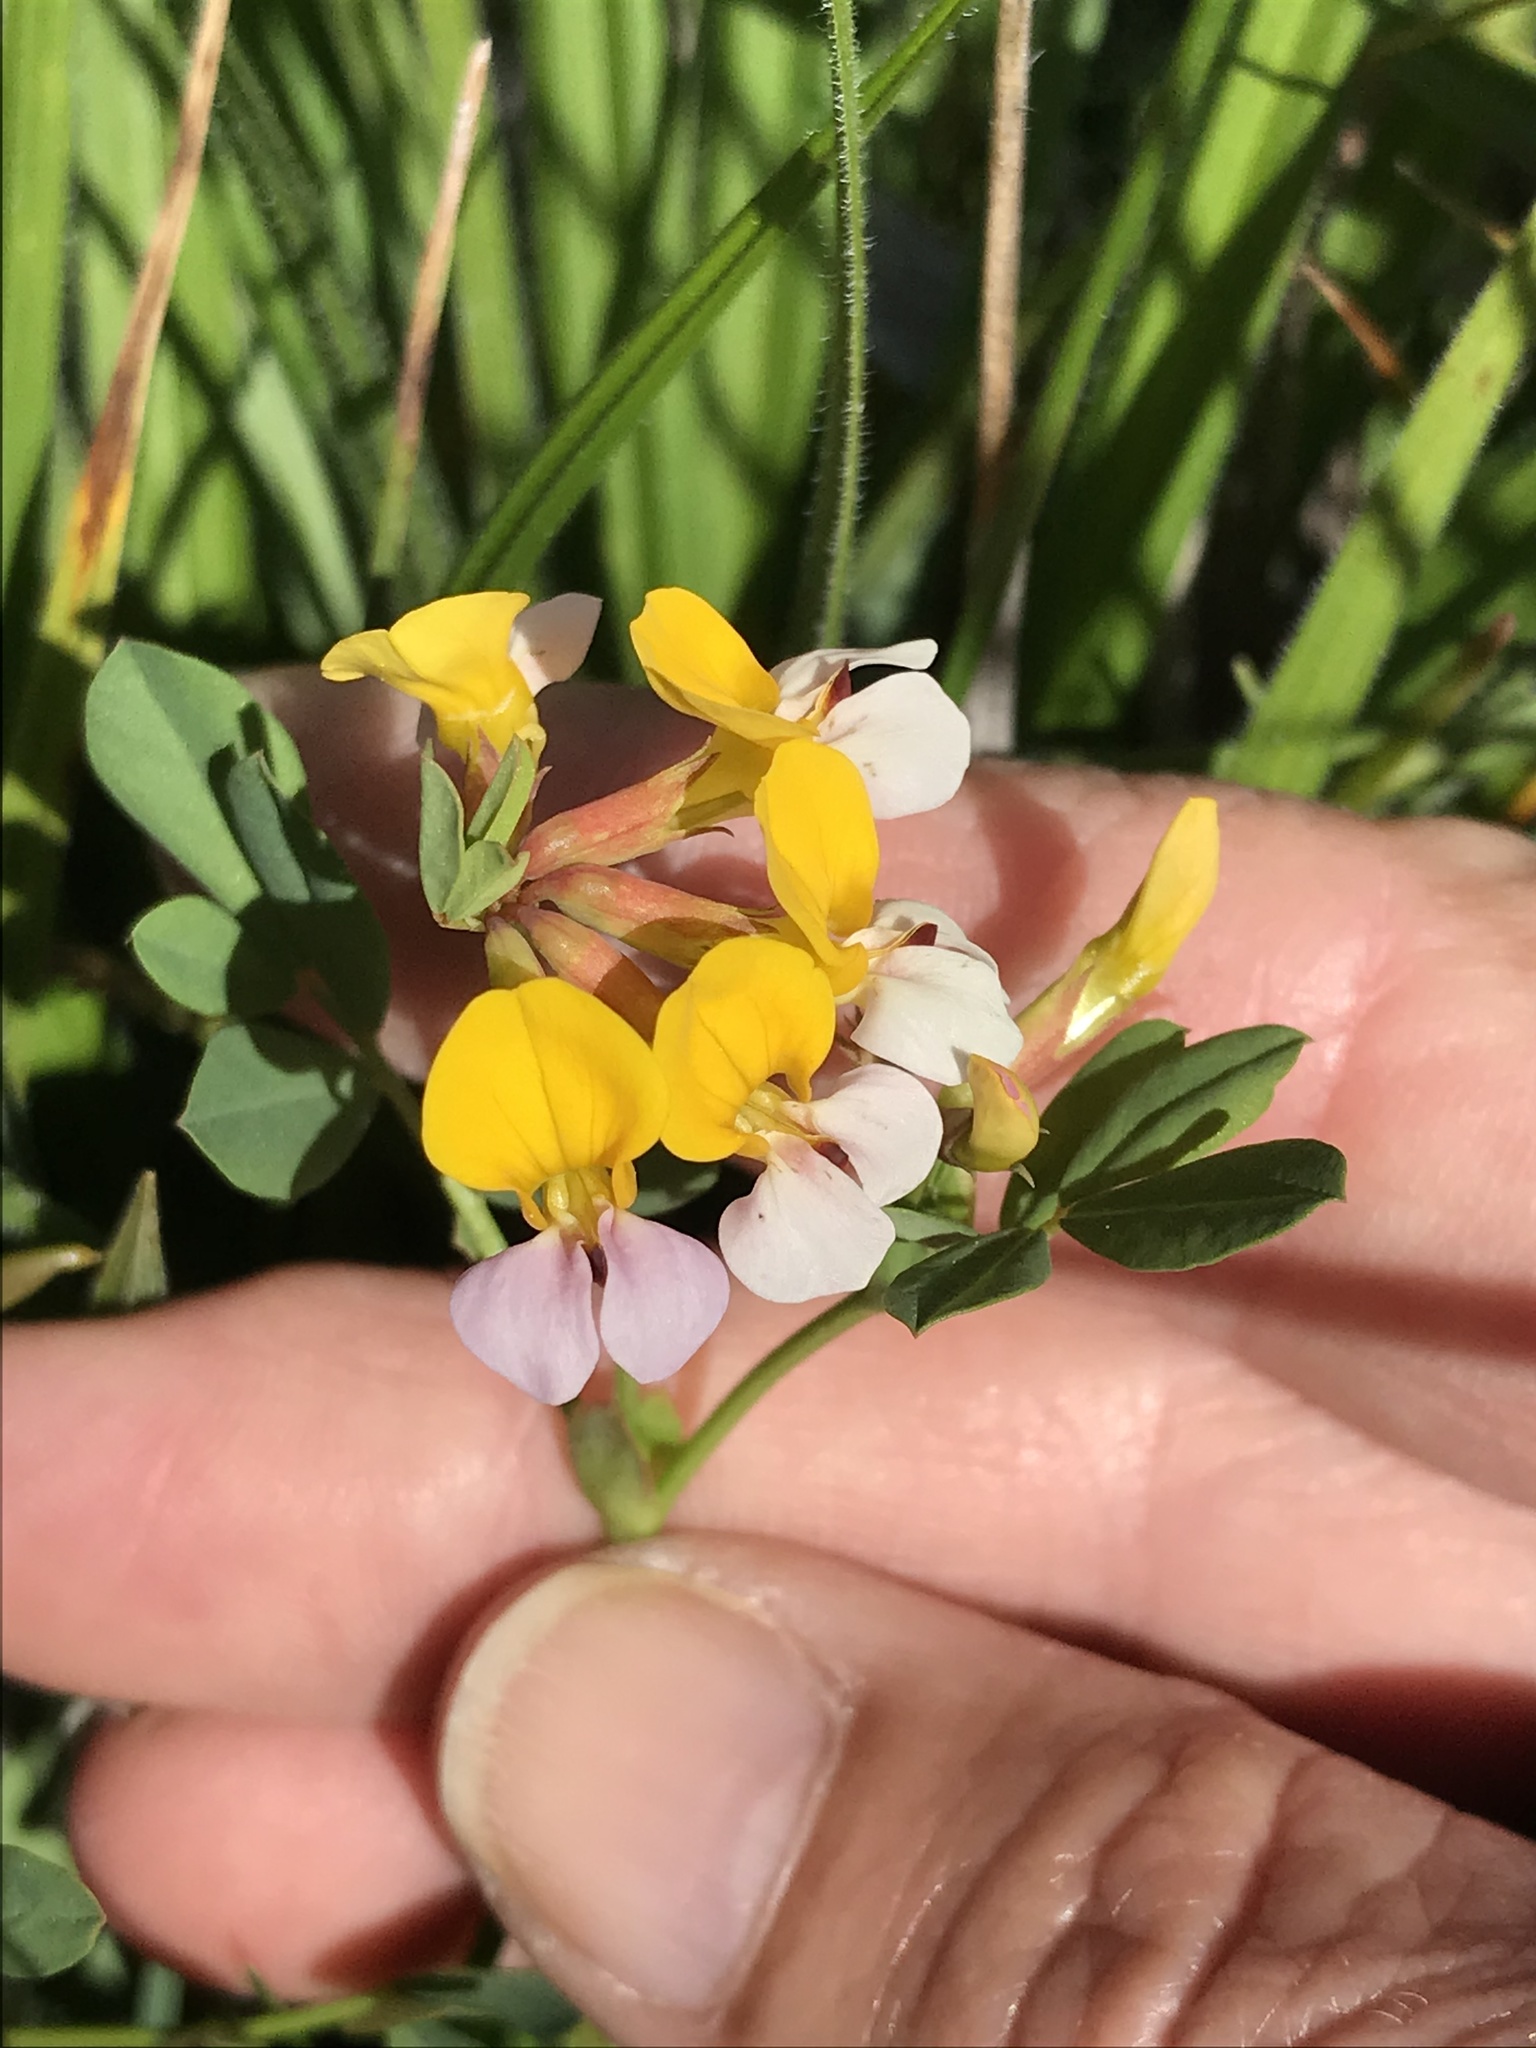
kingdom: Plantae
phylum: Tracheophyta
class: Magnoliopsida
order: Fabales
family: Fabaceae
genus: Hosackia
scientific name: Hosackia gracilis
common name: Seaside bird's-foot lotus
